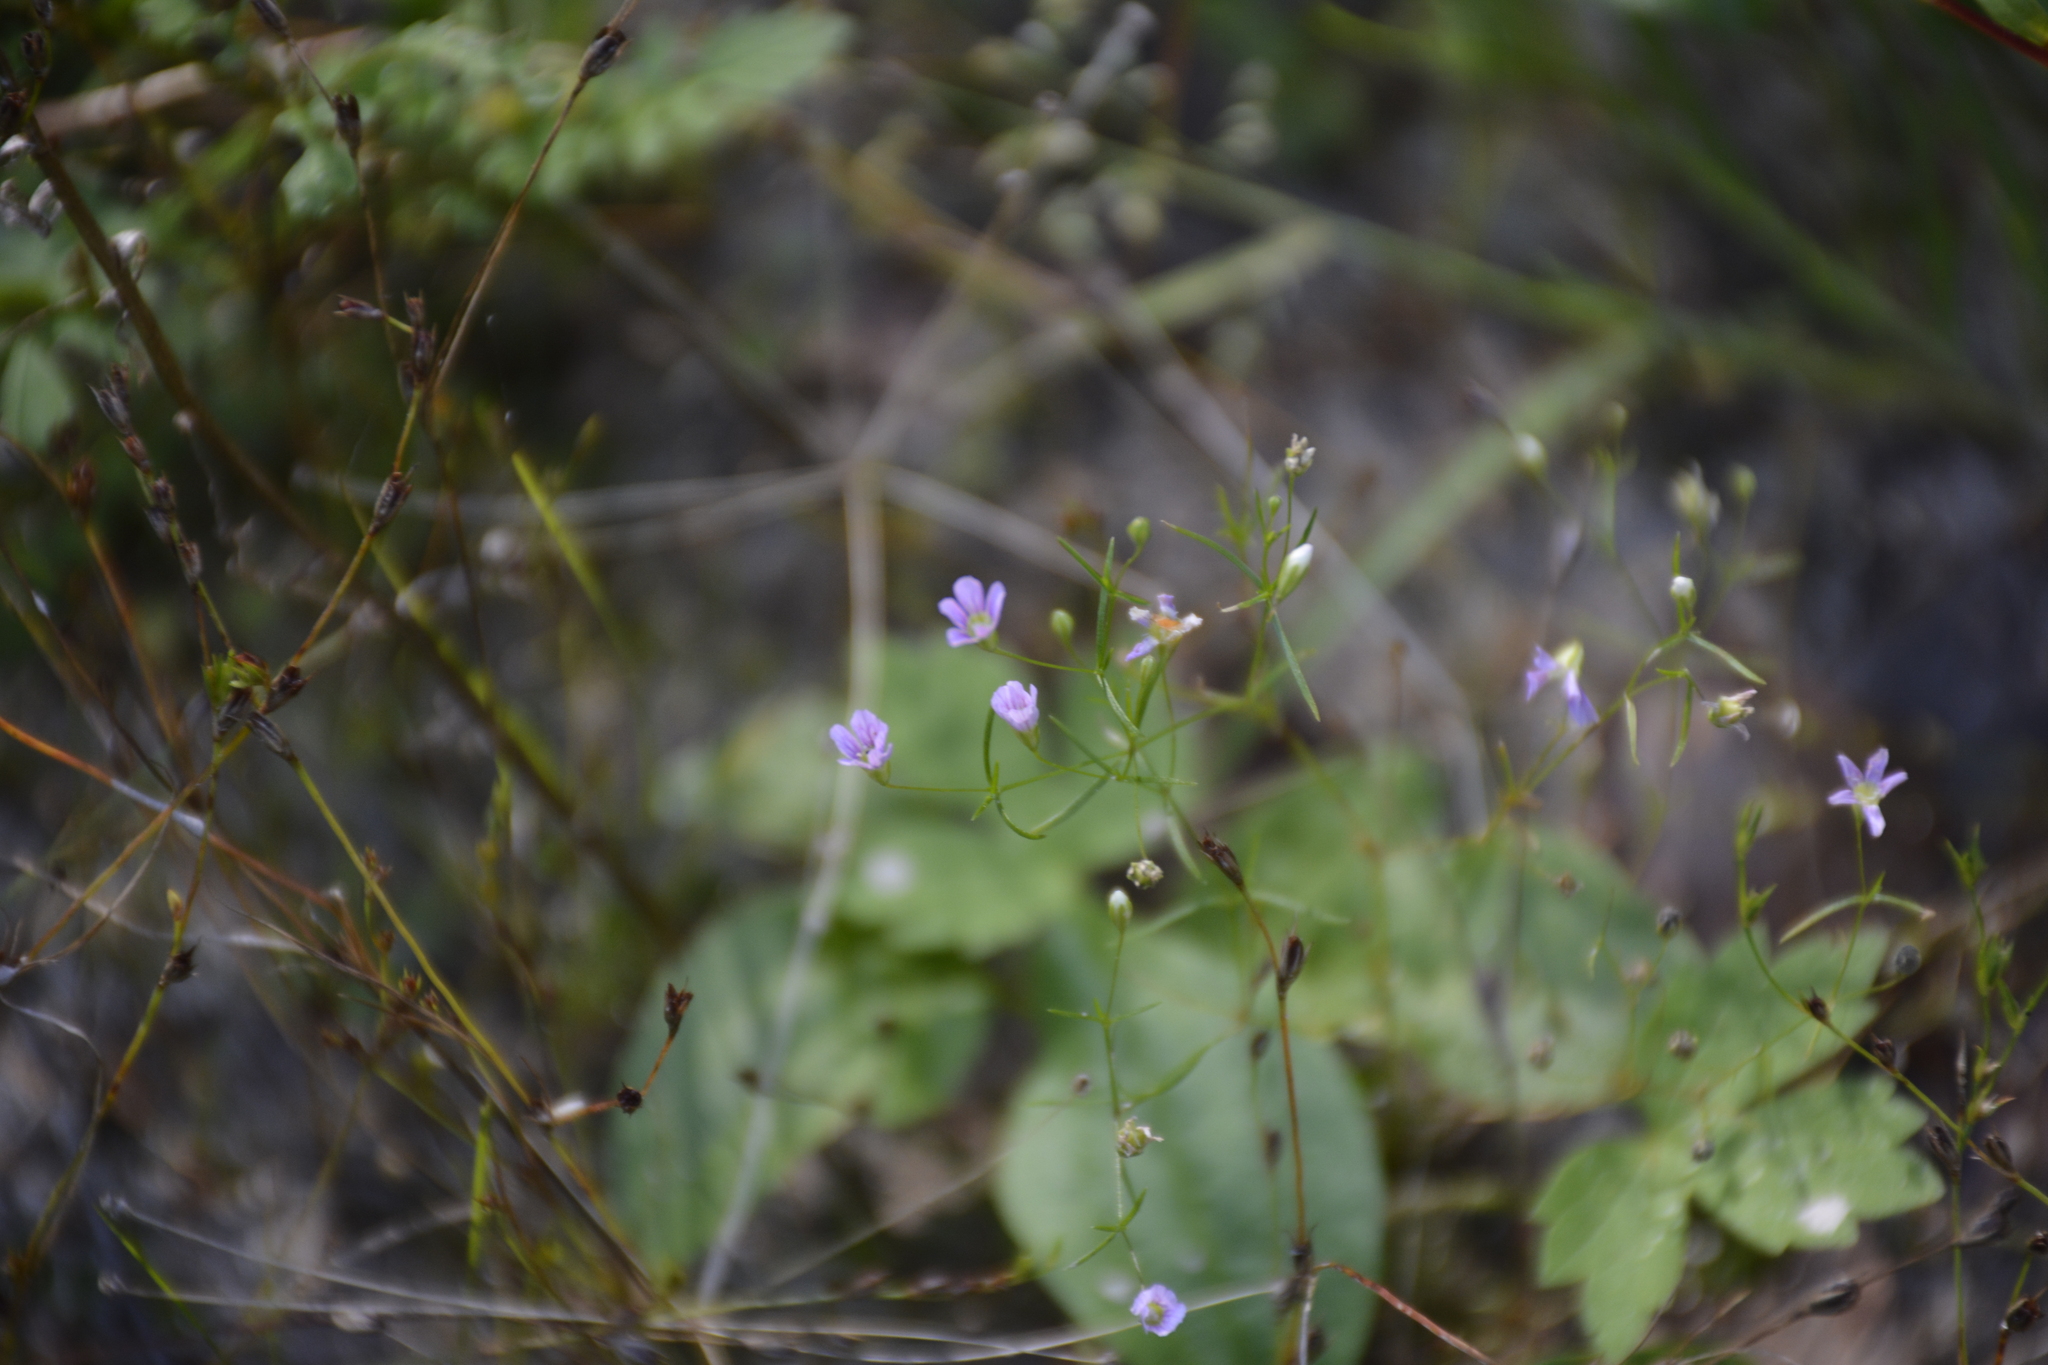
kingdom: Plantae
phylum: Tracheophyta
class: Magnoliopsida
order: Caryophyllales
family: Caryophyllaceae
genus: Psammophiliella
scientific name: Psammophiliella muralis
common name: Cushion baby's-breath
